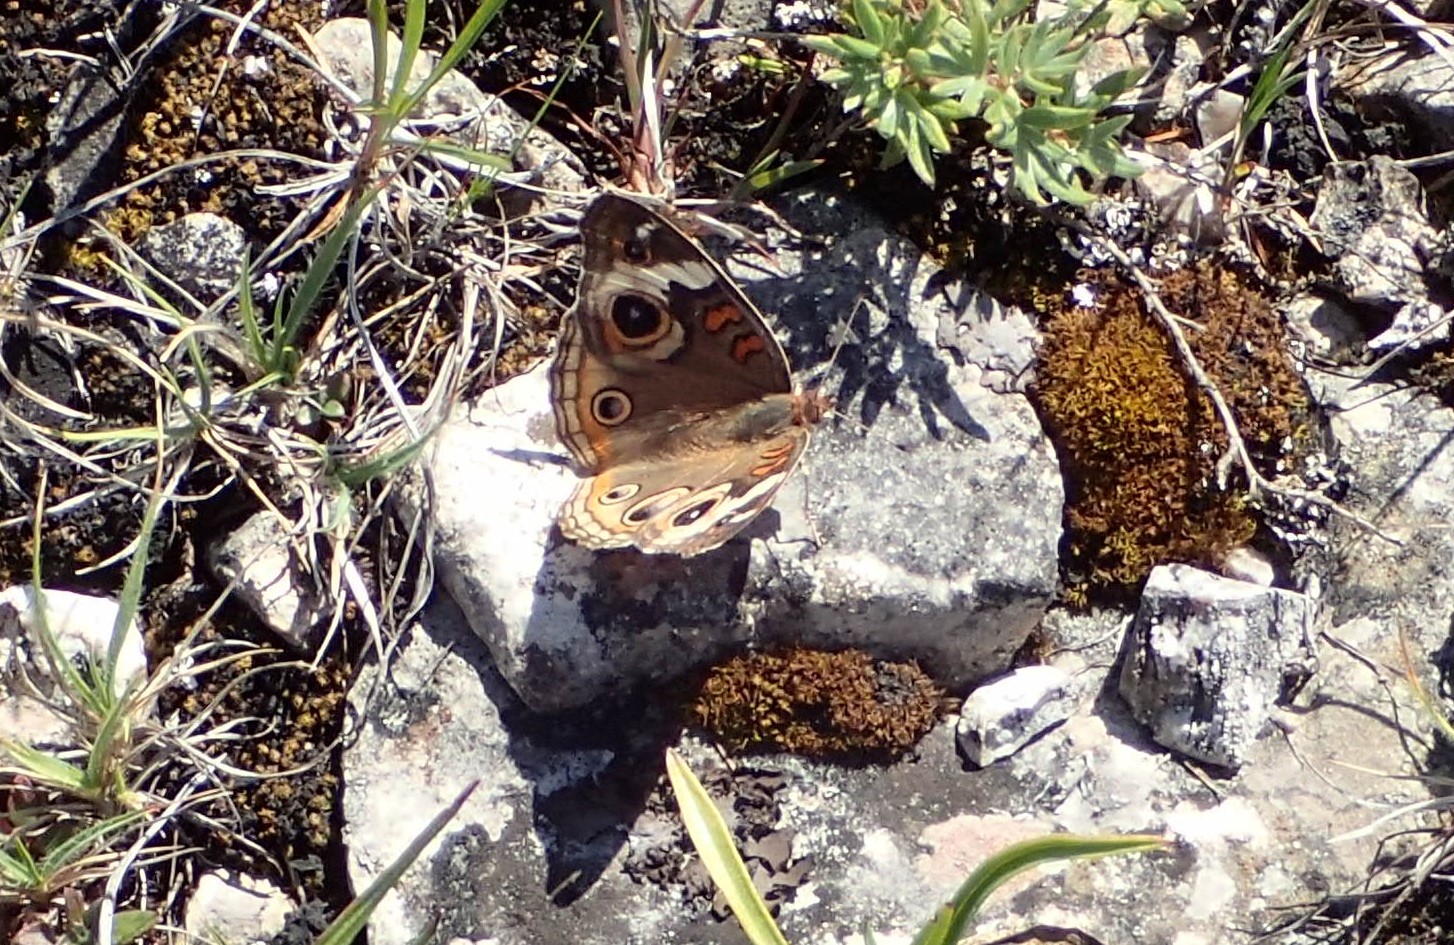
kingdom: Animalia
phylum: Arthropoda
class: Insecta
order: Lepidoptera
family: Nymphalidae
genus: Junonia
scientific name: Junonia coenia
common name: Common buckeye
